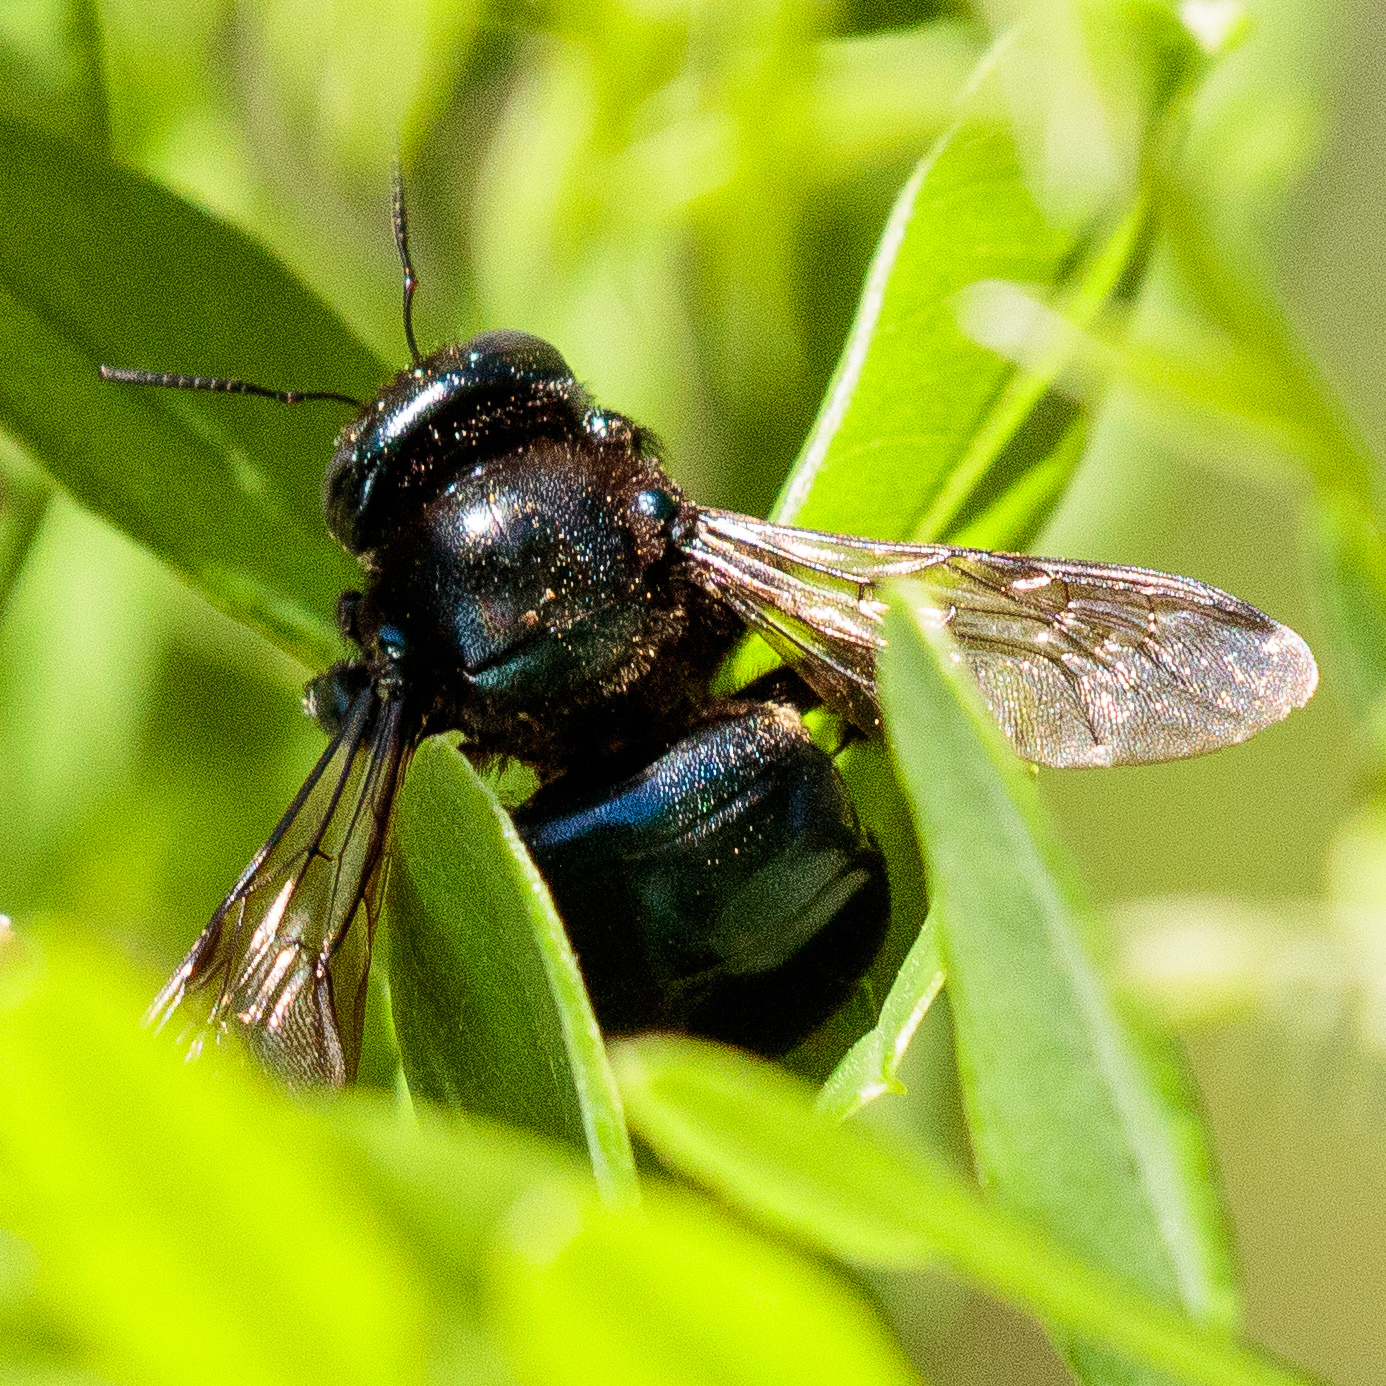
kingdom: Animalia
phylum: Arthropoda
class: Insecta
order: Hymenoptera
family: Apidae
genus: Xylocopa
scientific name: Xylocopa micans
